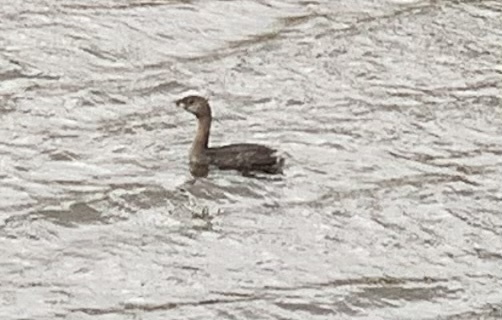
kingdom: Animalia
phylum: Chordata
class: Aves
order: Podicipediformes
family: Podicipedidae
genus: Podilymbus
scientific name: Podilymbus podiceps
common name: Pied-billed grebe
